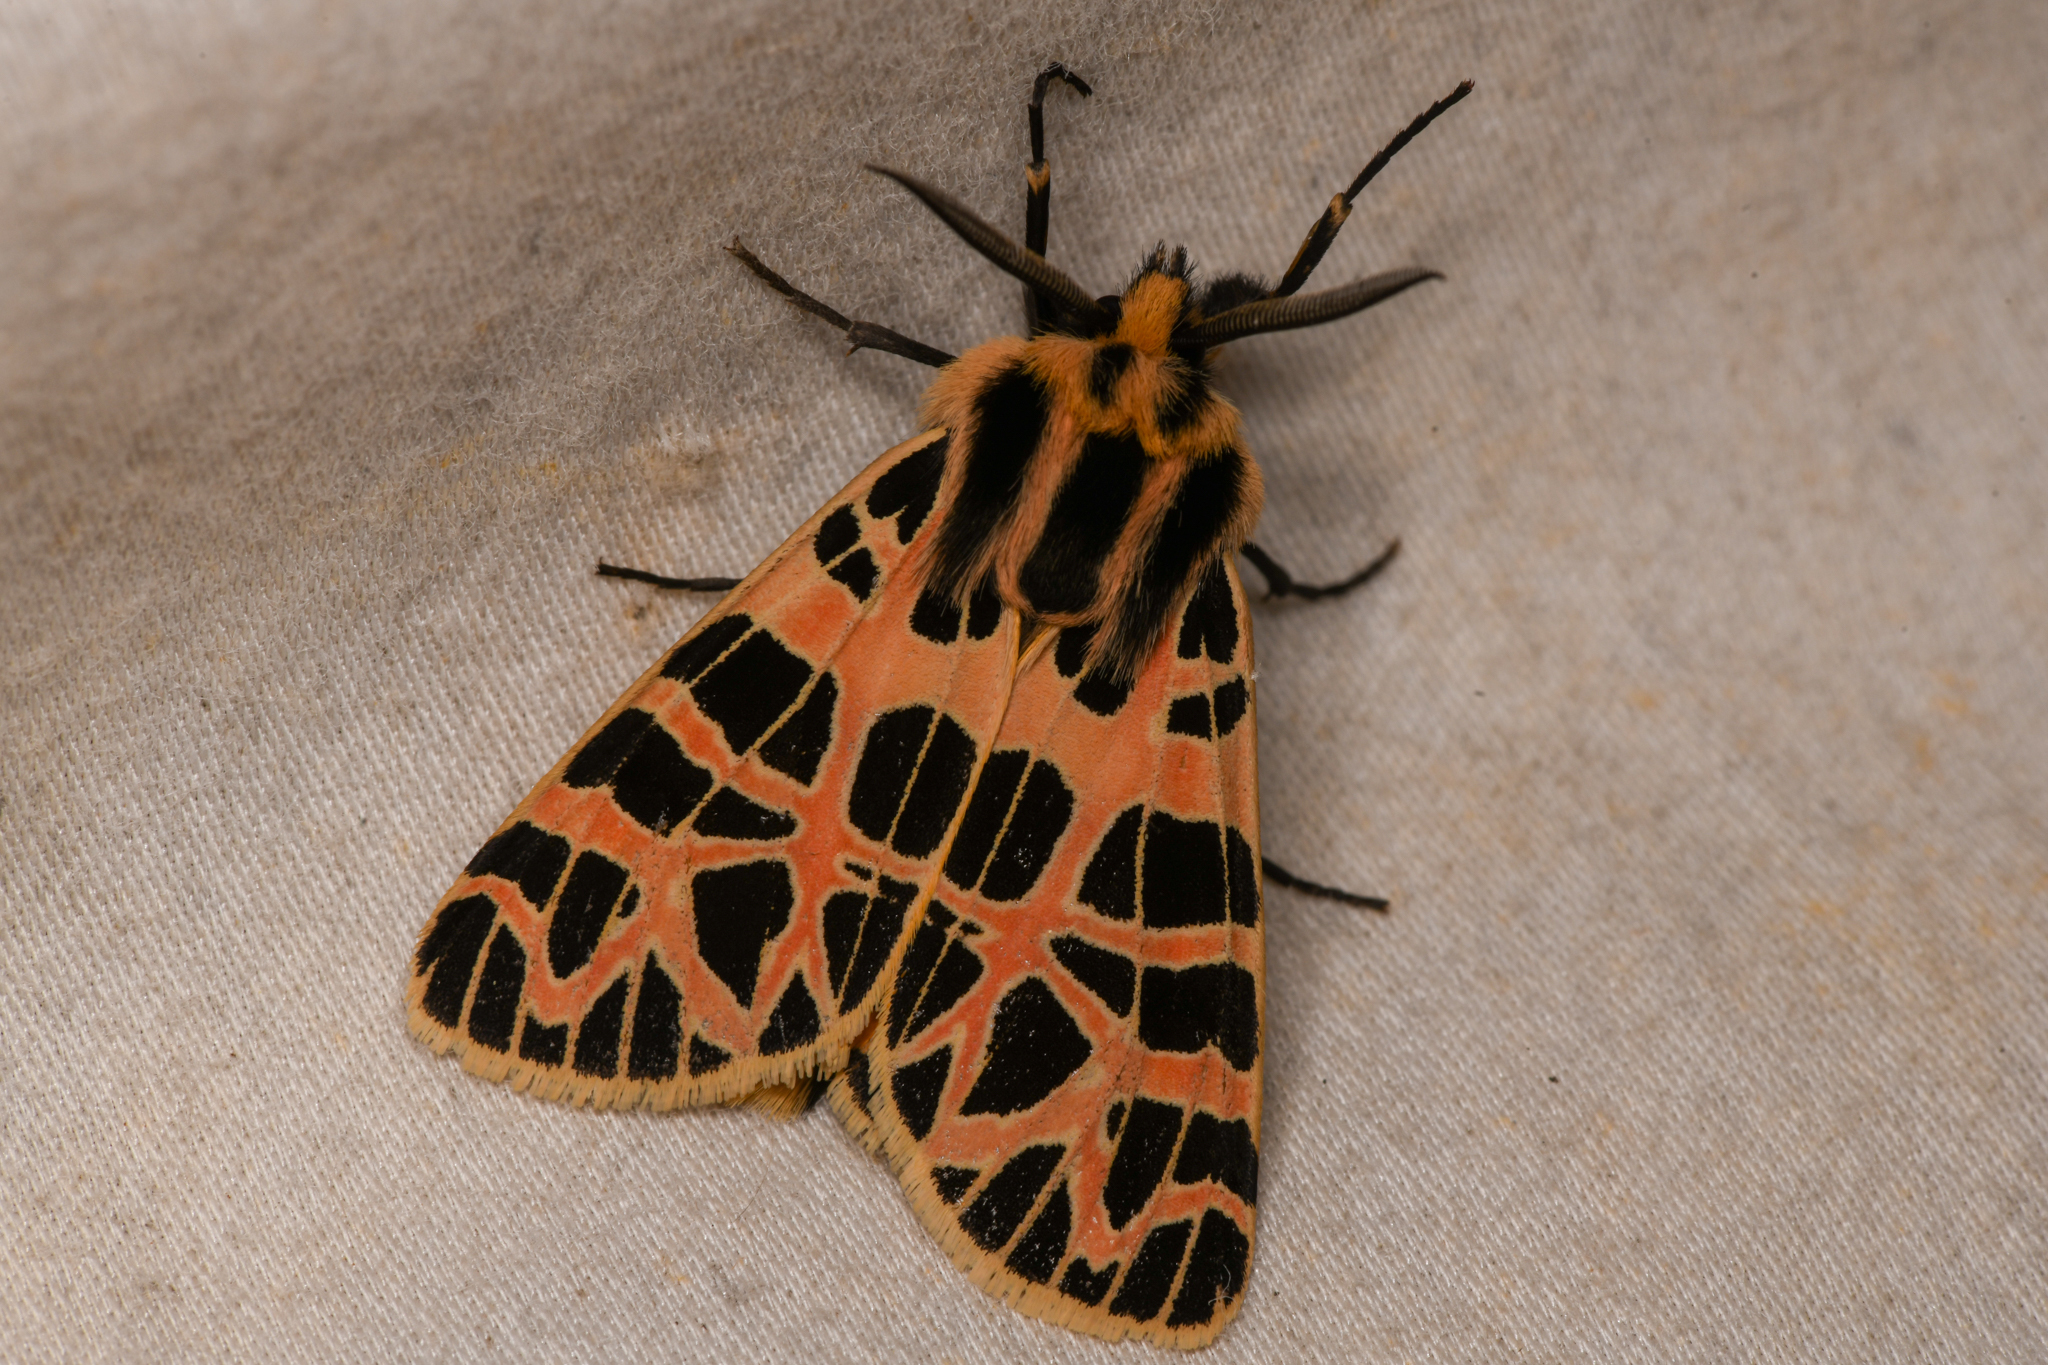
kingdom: Animalia
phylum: Arthropoda
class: Insecta
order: Lepidoptera
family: Erebidae
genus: Apantesis
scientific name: Apantesis
